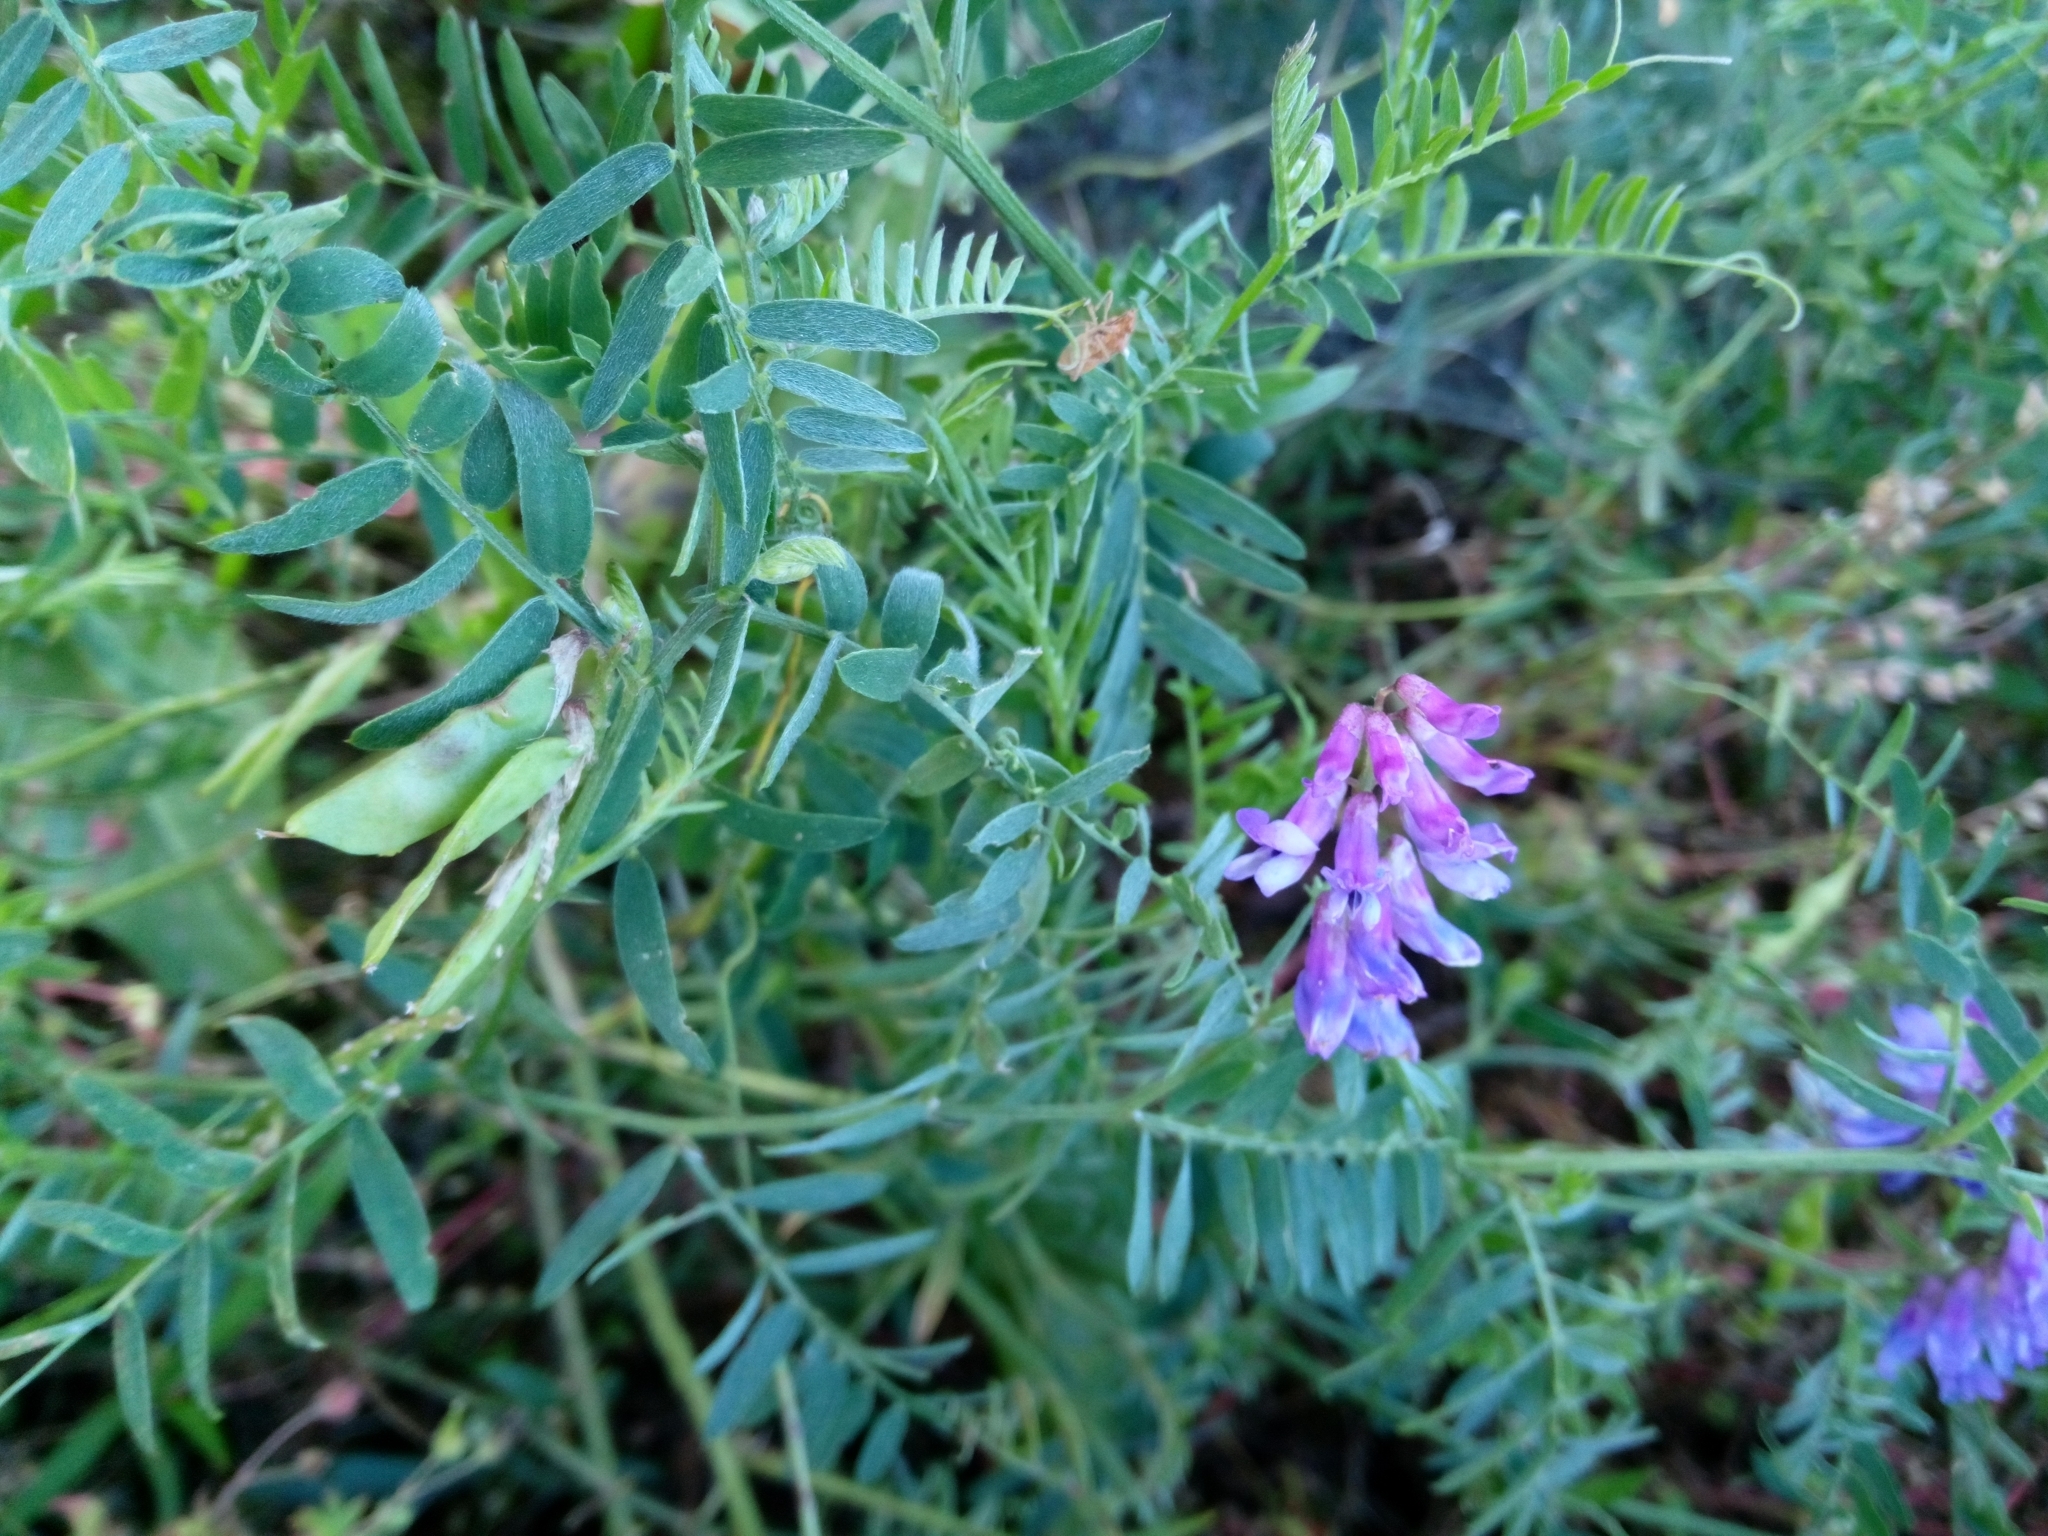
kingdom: Plantae
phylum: Tracheophyta
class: Magnoliopsida
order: Fabales
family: Fabaceae
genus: Vicia
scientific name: Vicia cracca
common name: Bird vetch
